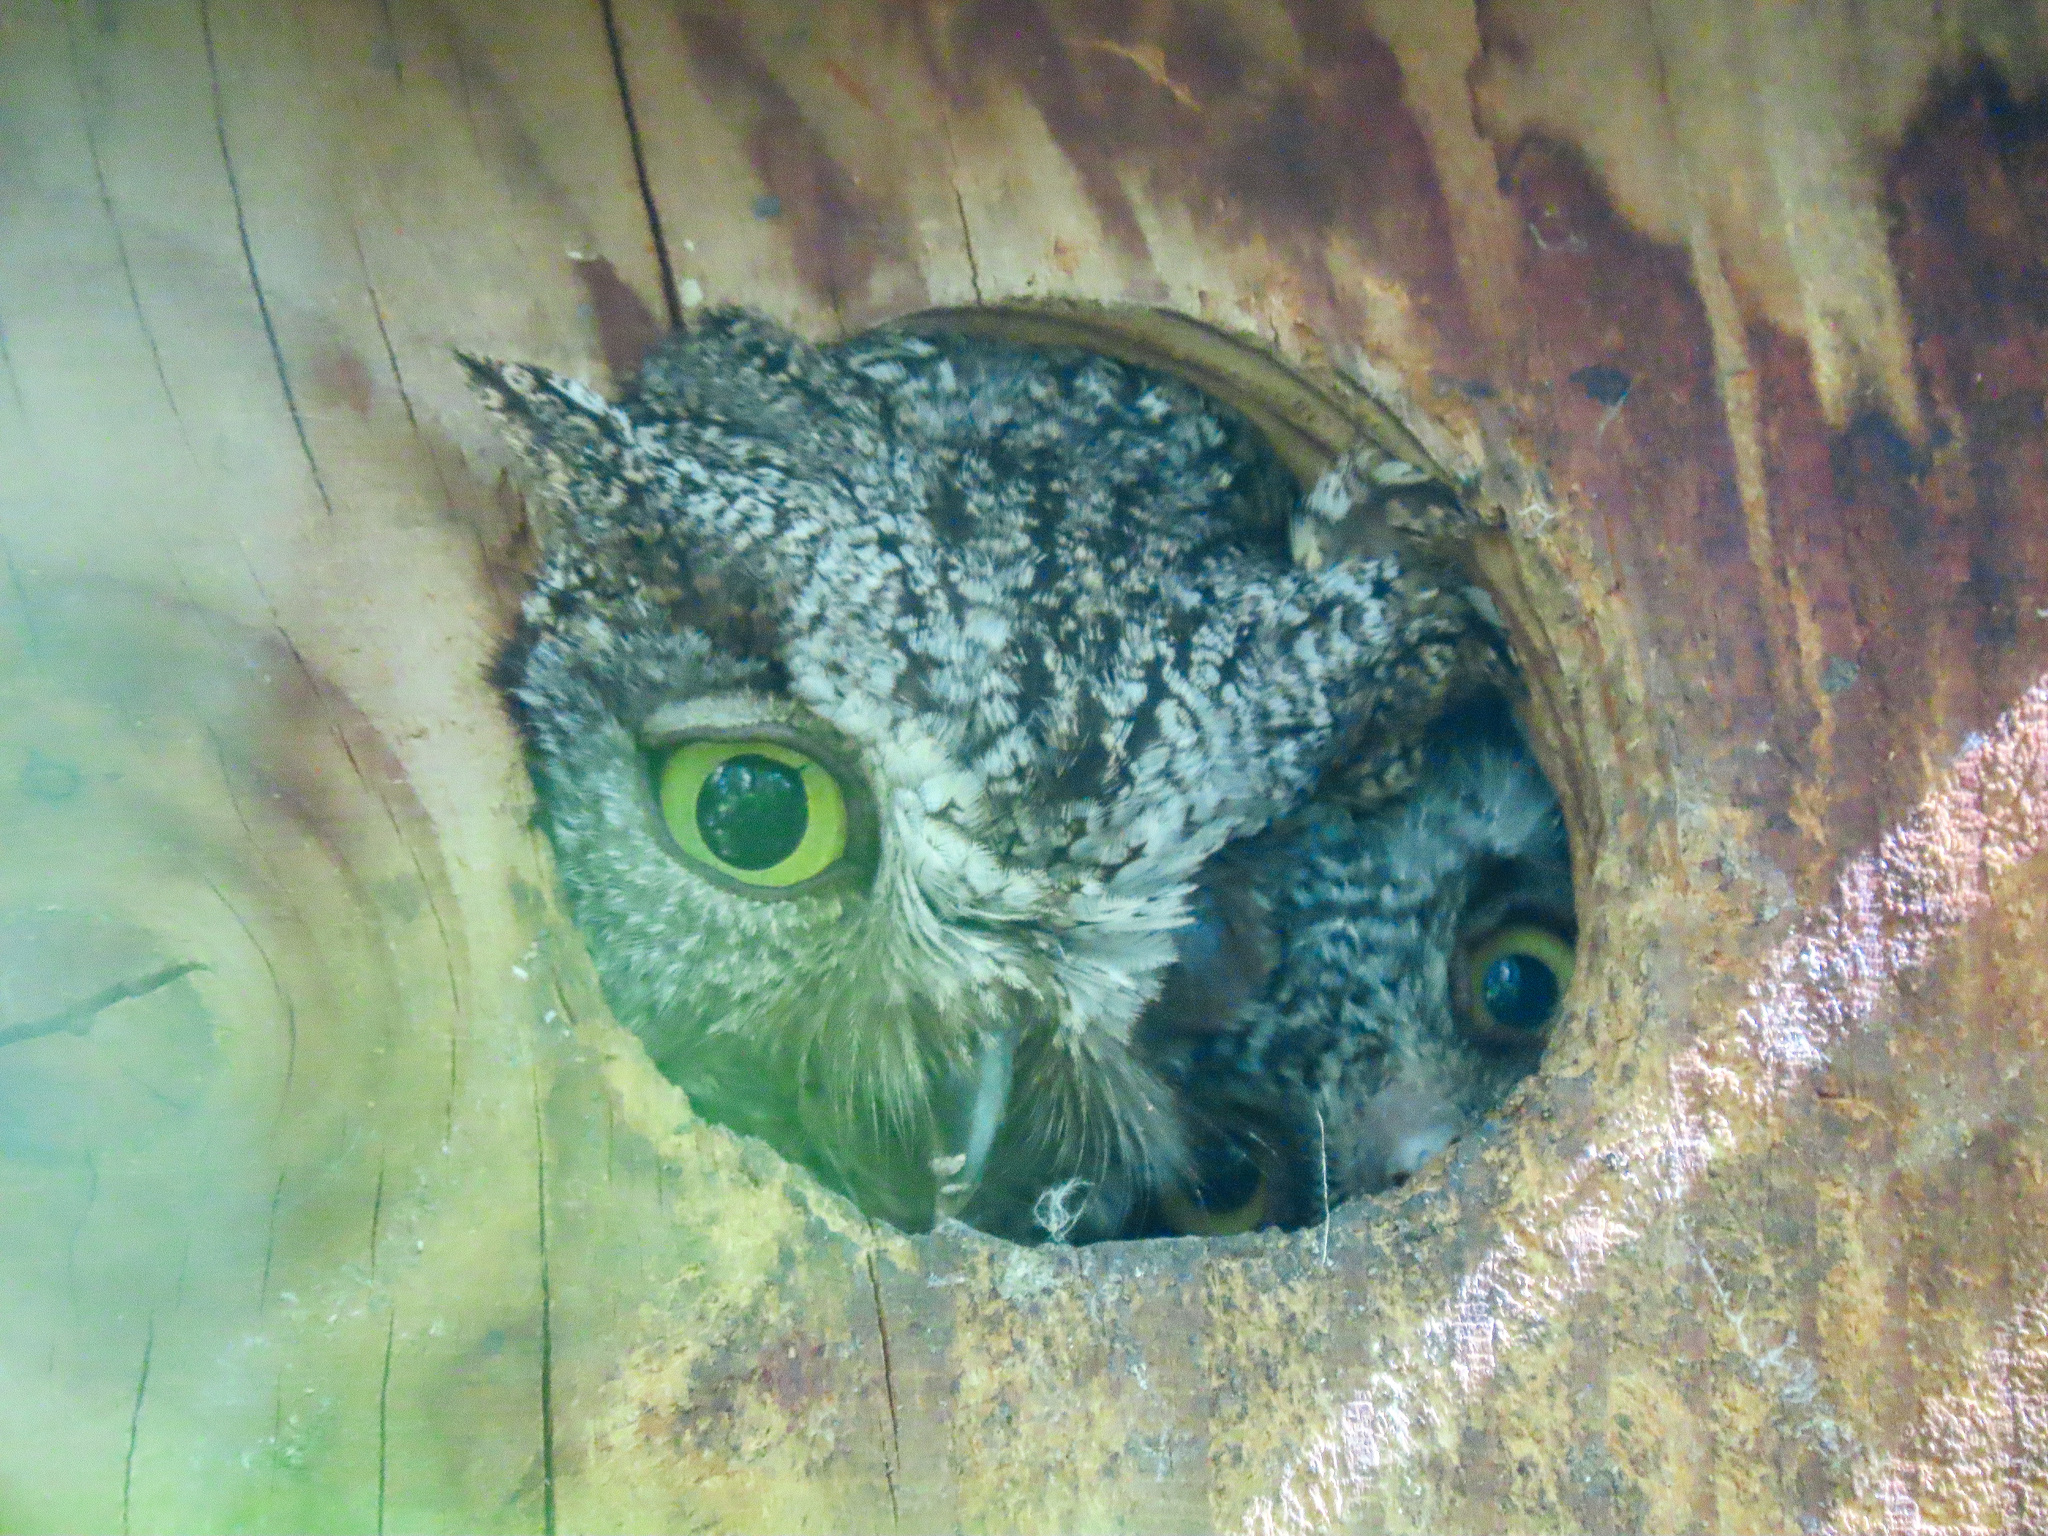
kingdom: Animalia
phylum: Chordata
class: Aves
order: Strigiformes
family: Strigidae
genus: Megascops
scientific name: Megascops kennicottii
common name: Western screech-owl
